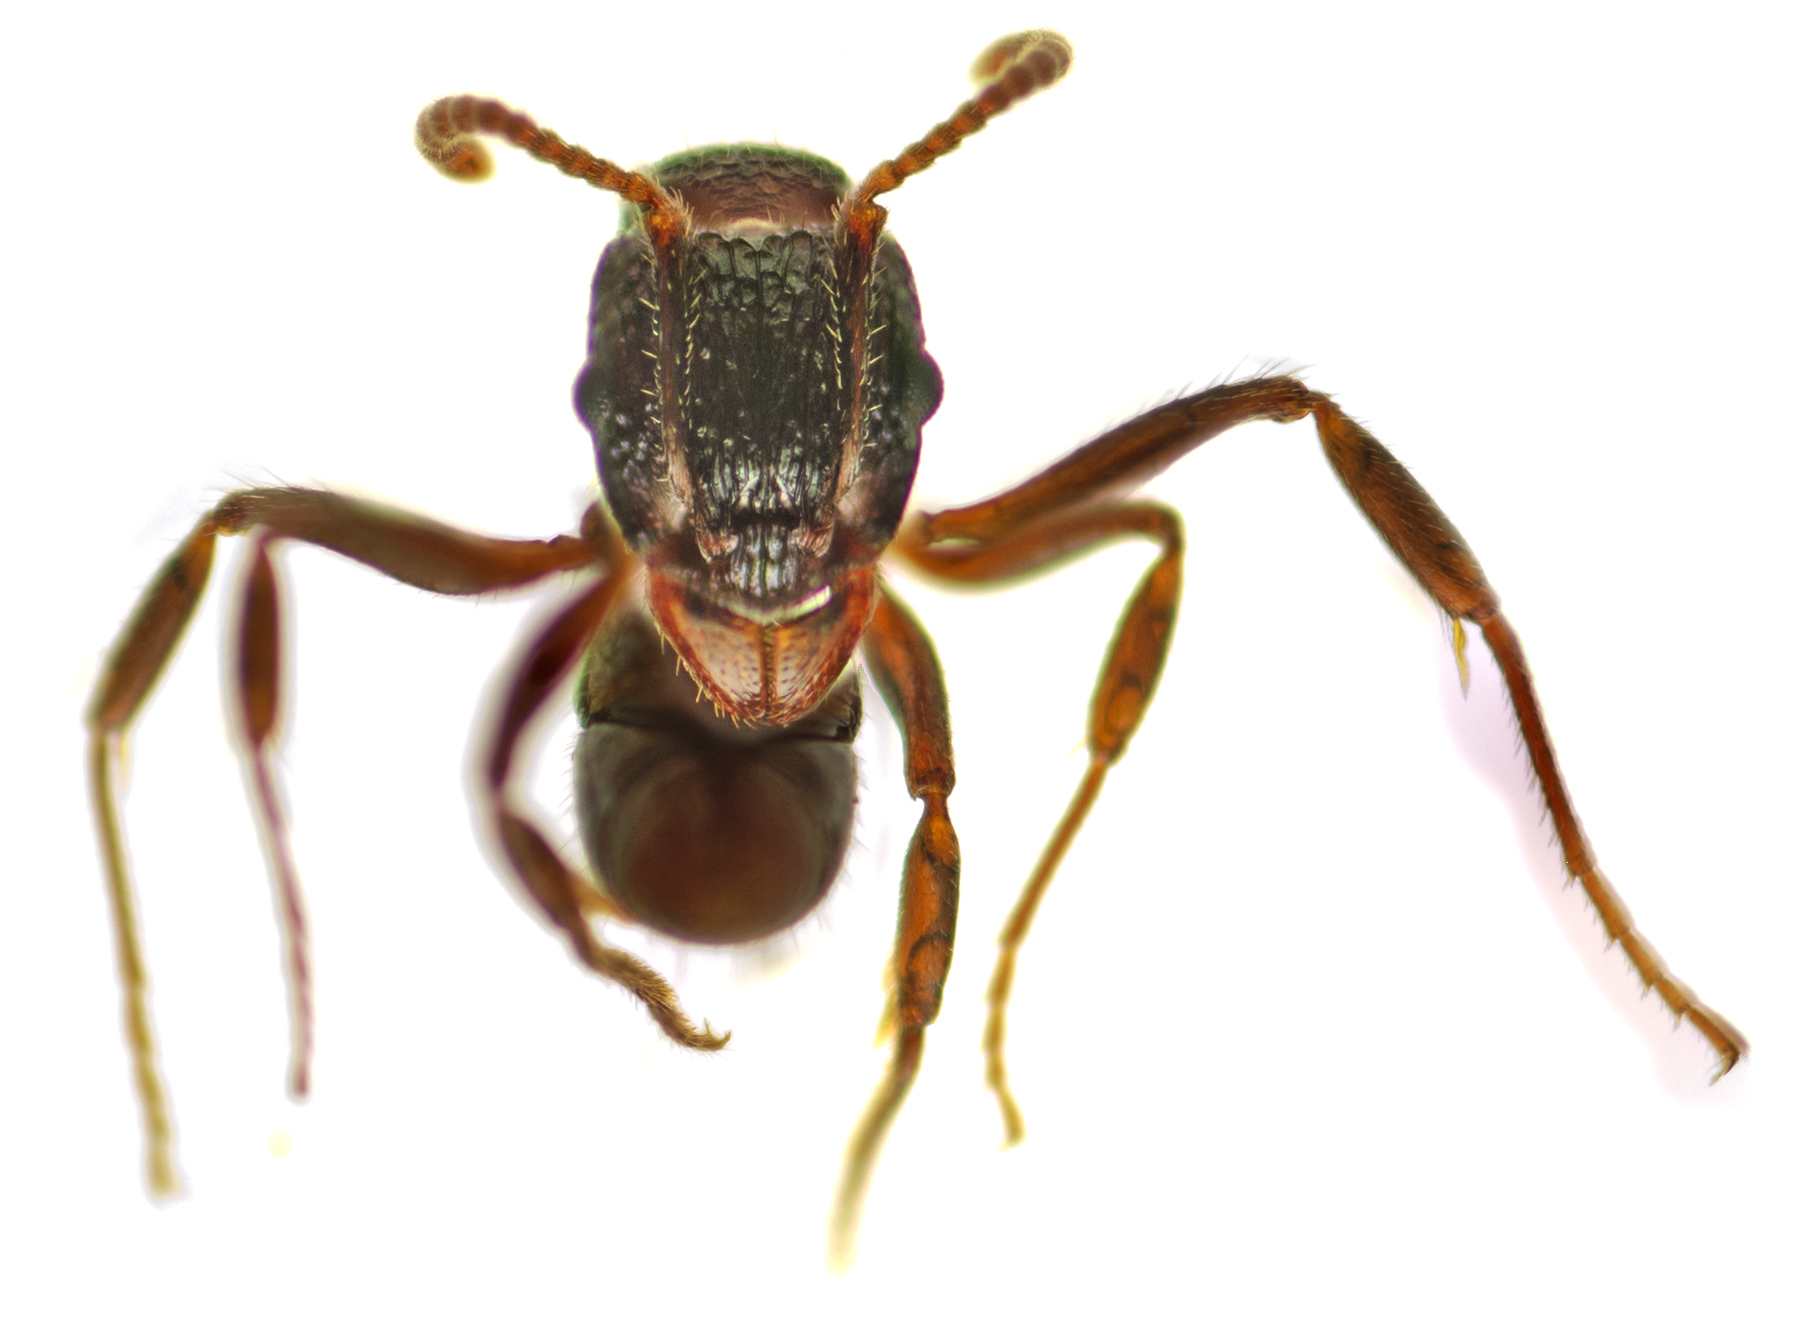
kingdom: Animalia
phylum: Arthropoda
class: Insecta
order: Hymenoptera
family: Formicidae
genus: Rhytidoponera
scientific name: Rhytidoponera anceps
